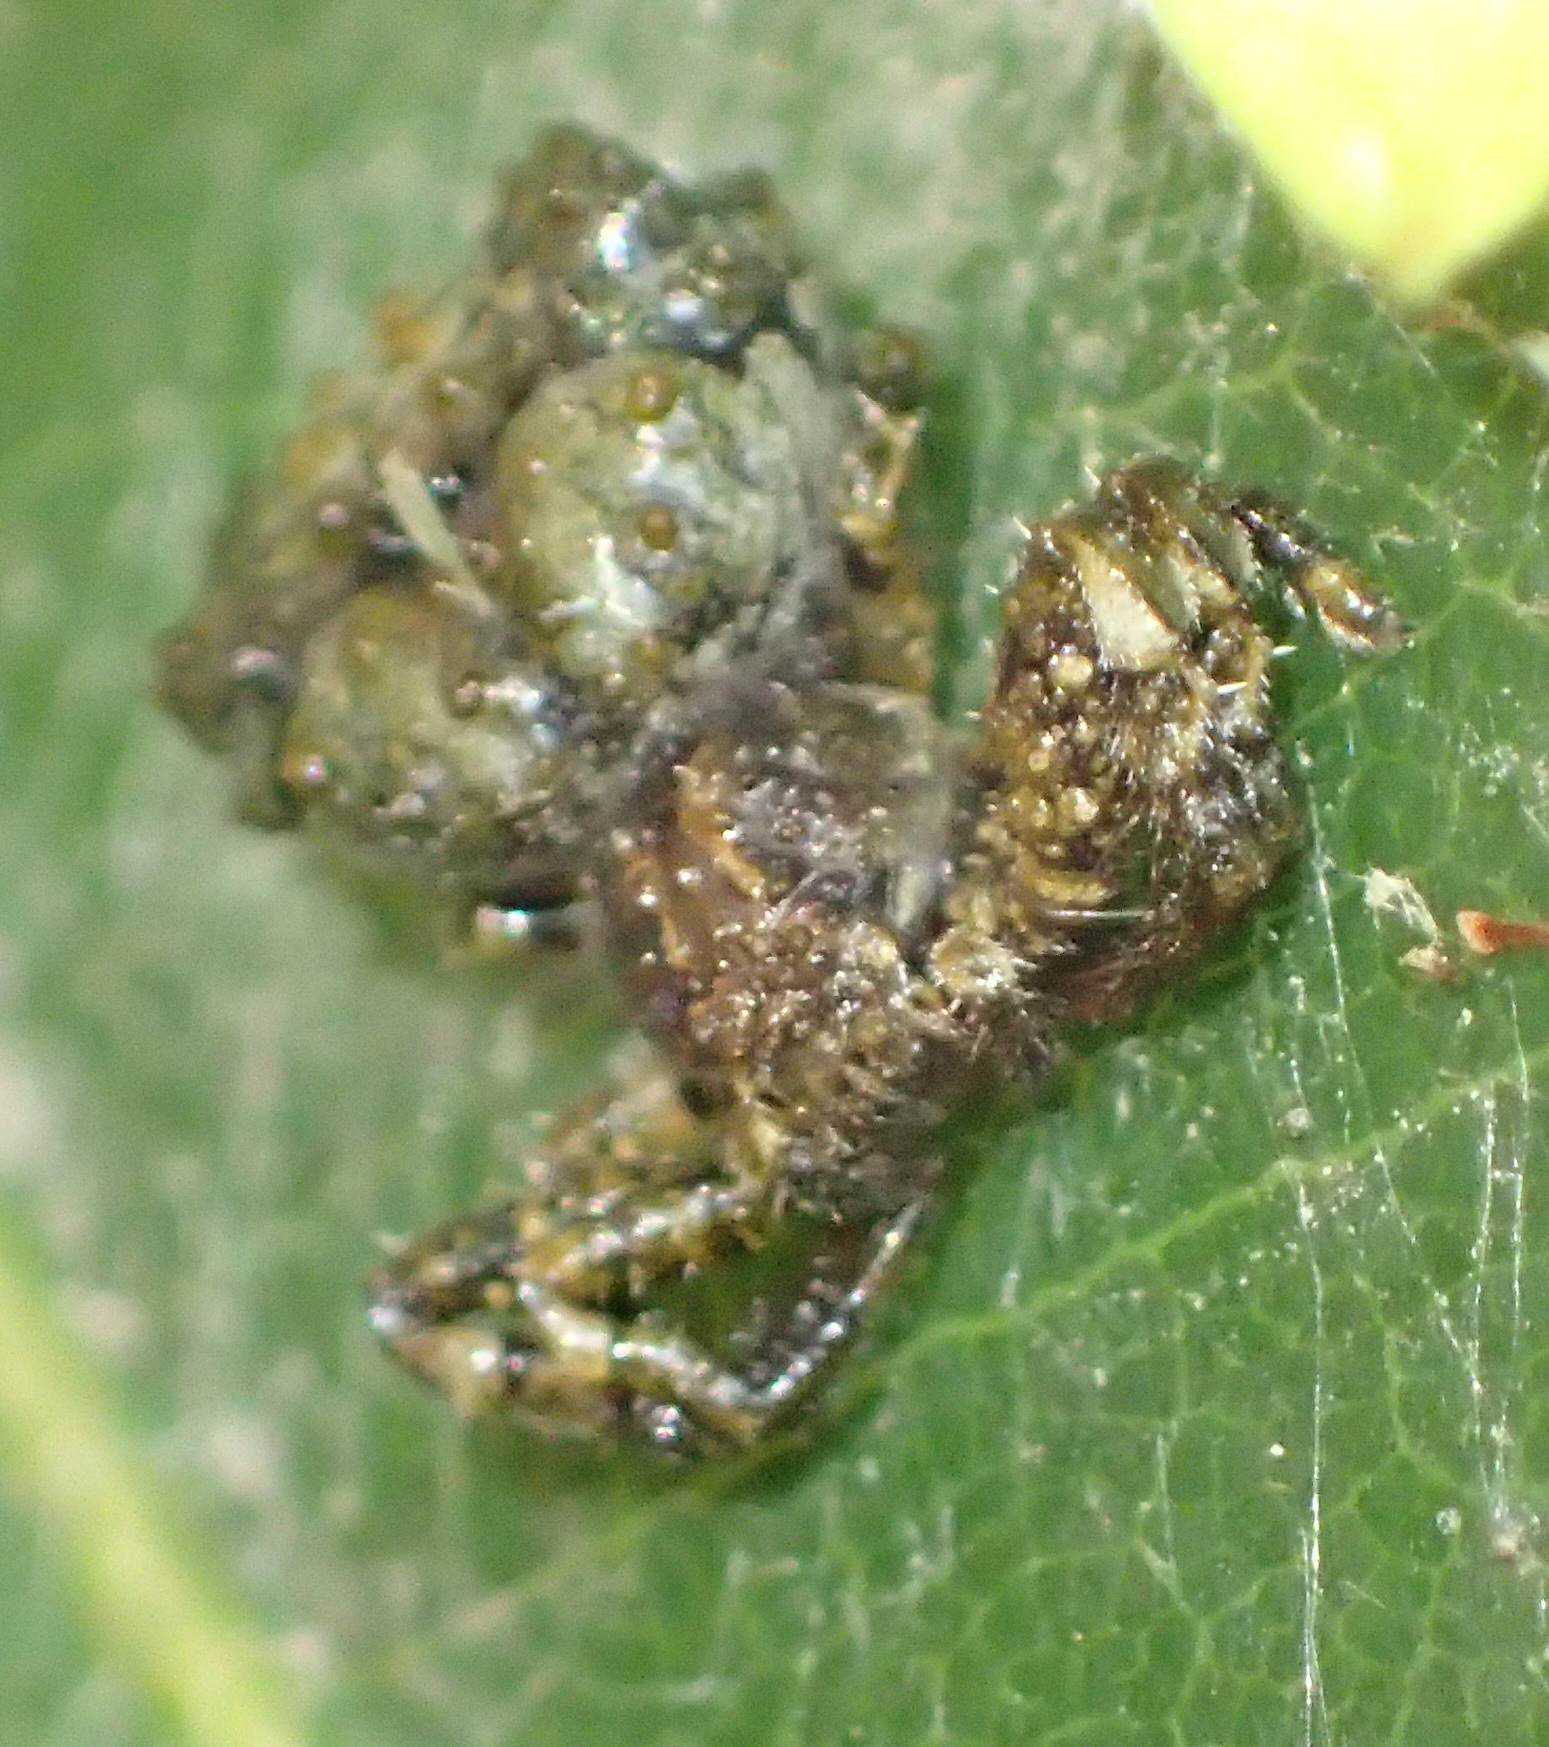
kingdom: Animalia
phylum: Arthropoda
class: Arachnida
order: Araneae
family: Thomisidae
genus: Phrynarachne
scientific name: Phrynarachne rugosa
